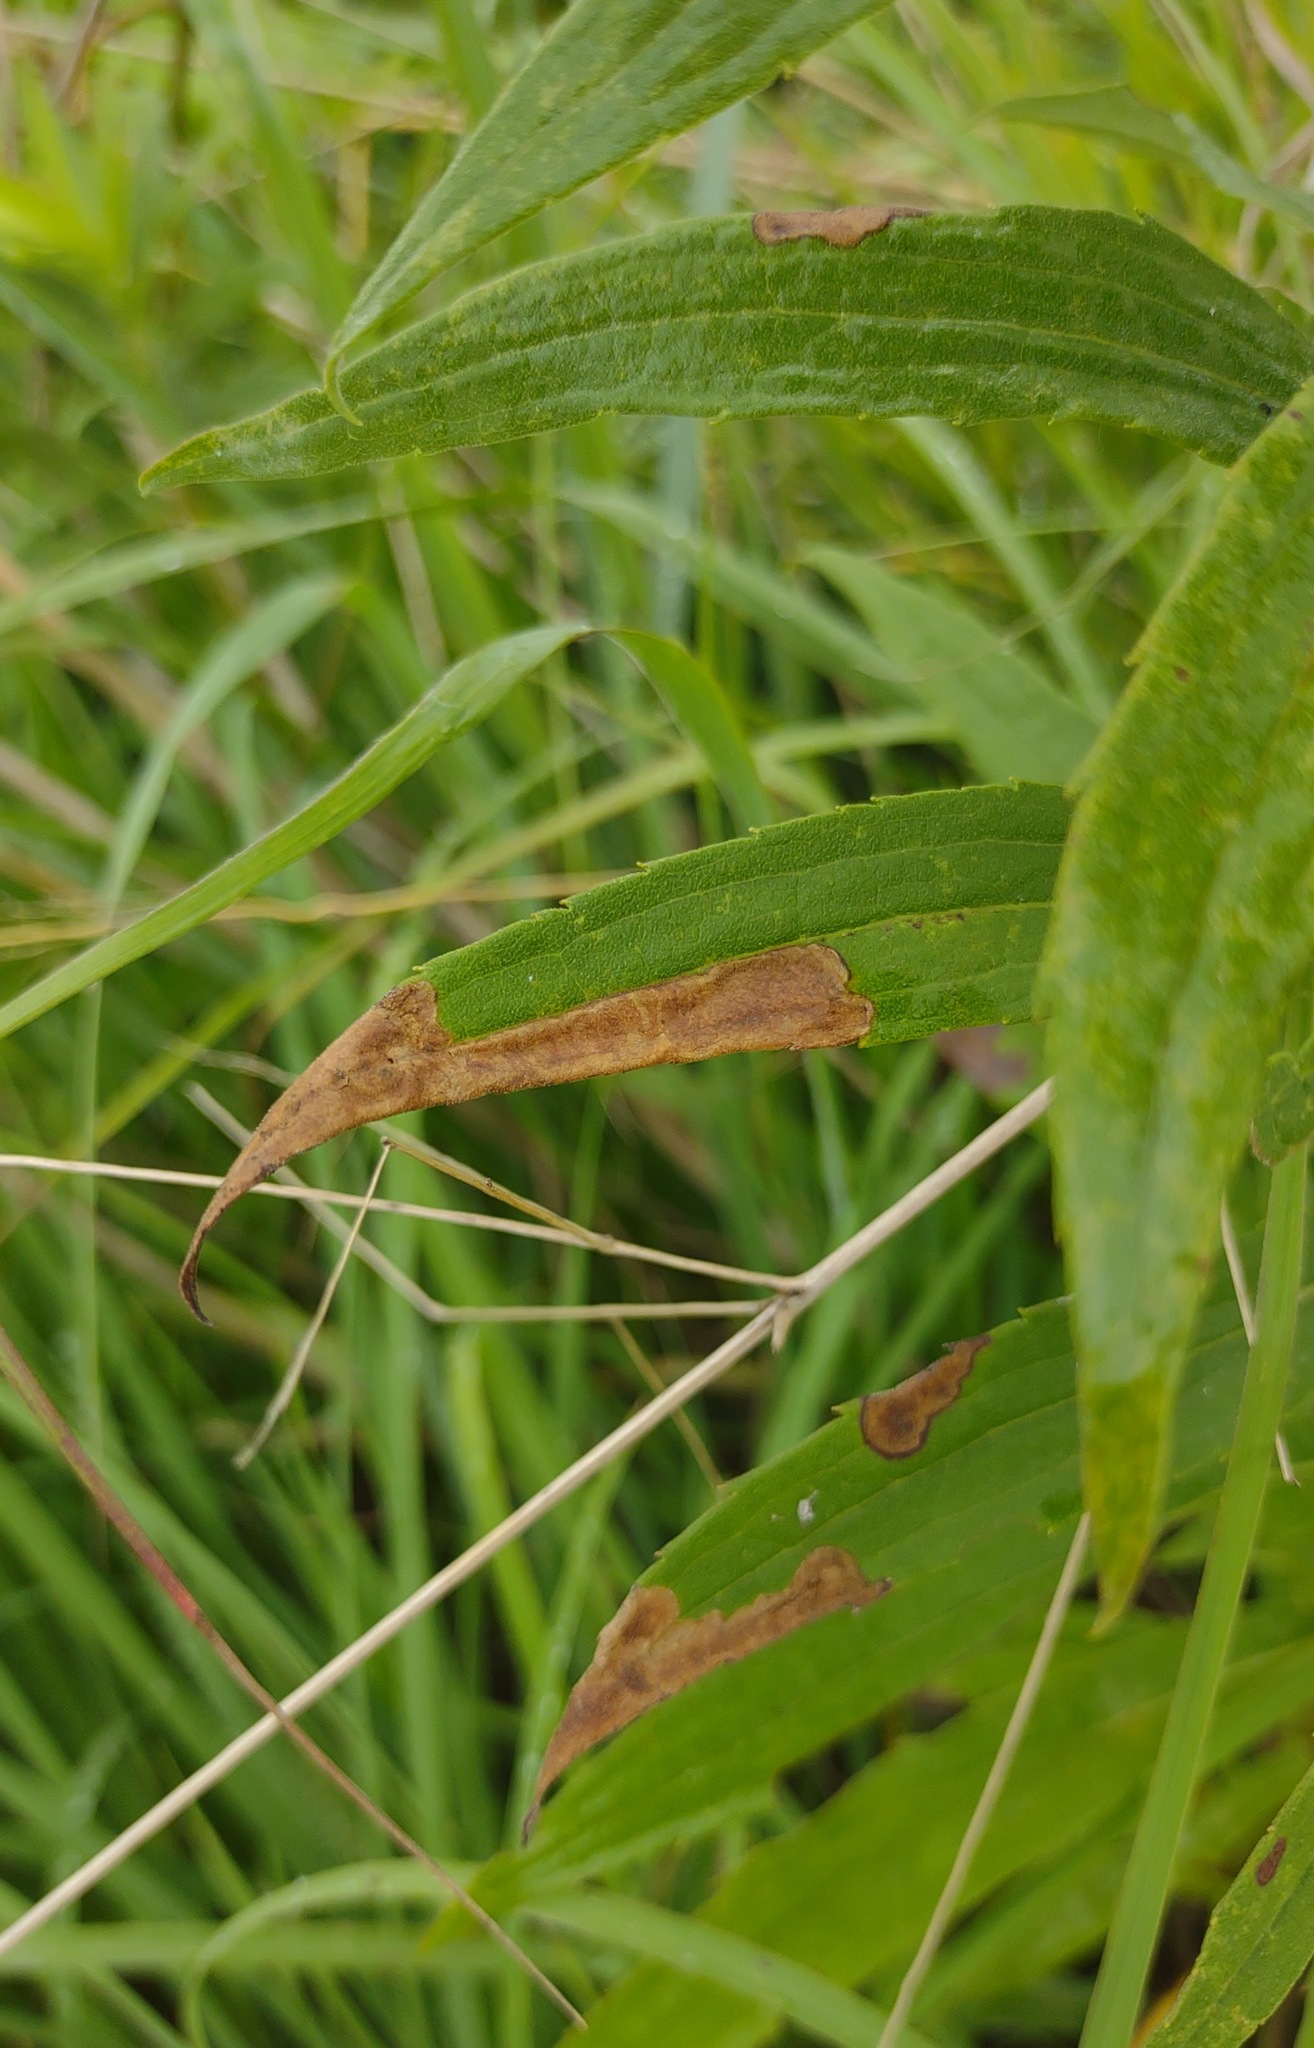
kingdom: Animalia
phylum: Arthropoda
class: Insecta
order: Diptera
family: Agromyzidae
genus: Nemorimyza
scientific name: Nemorimyza posticata
